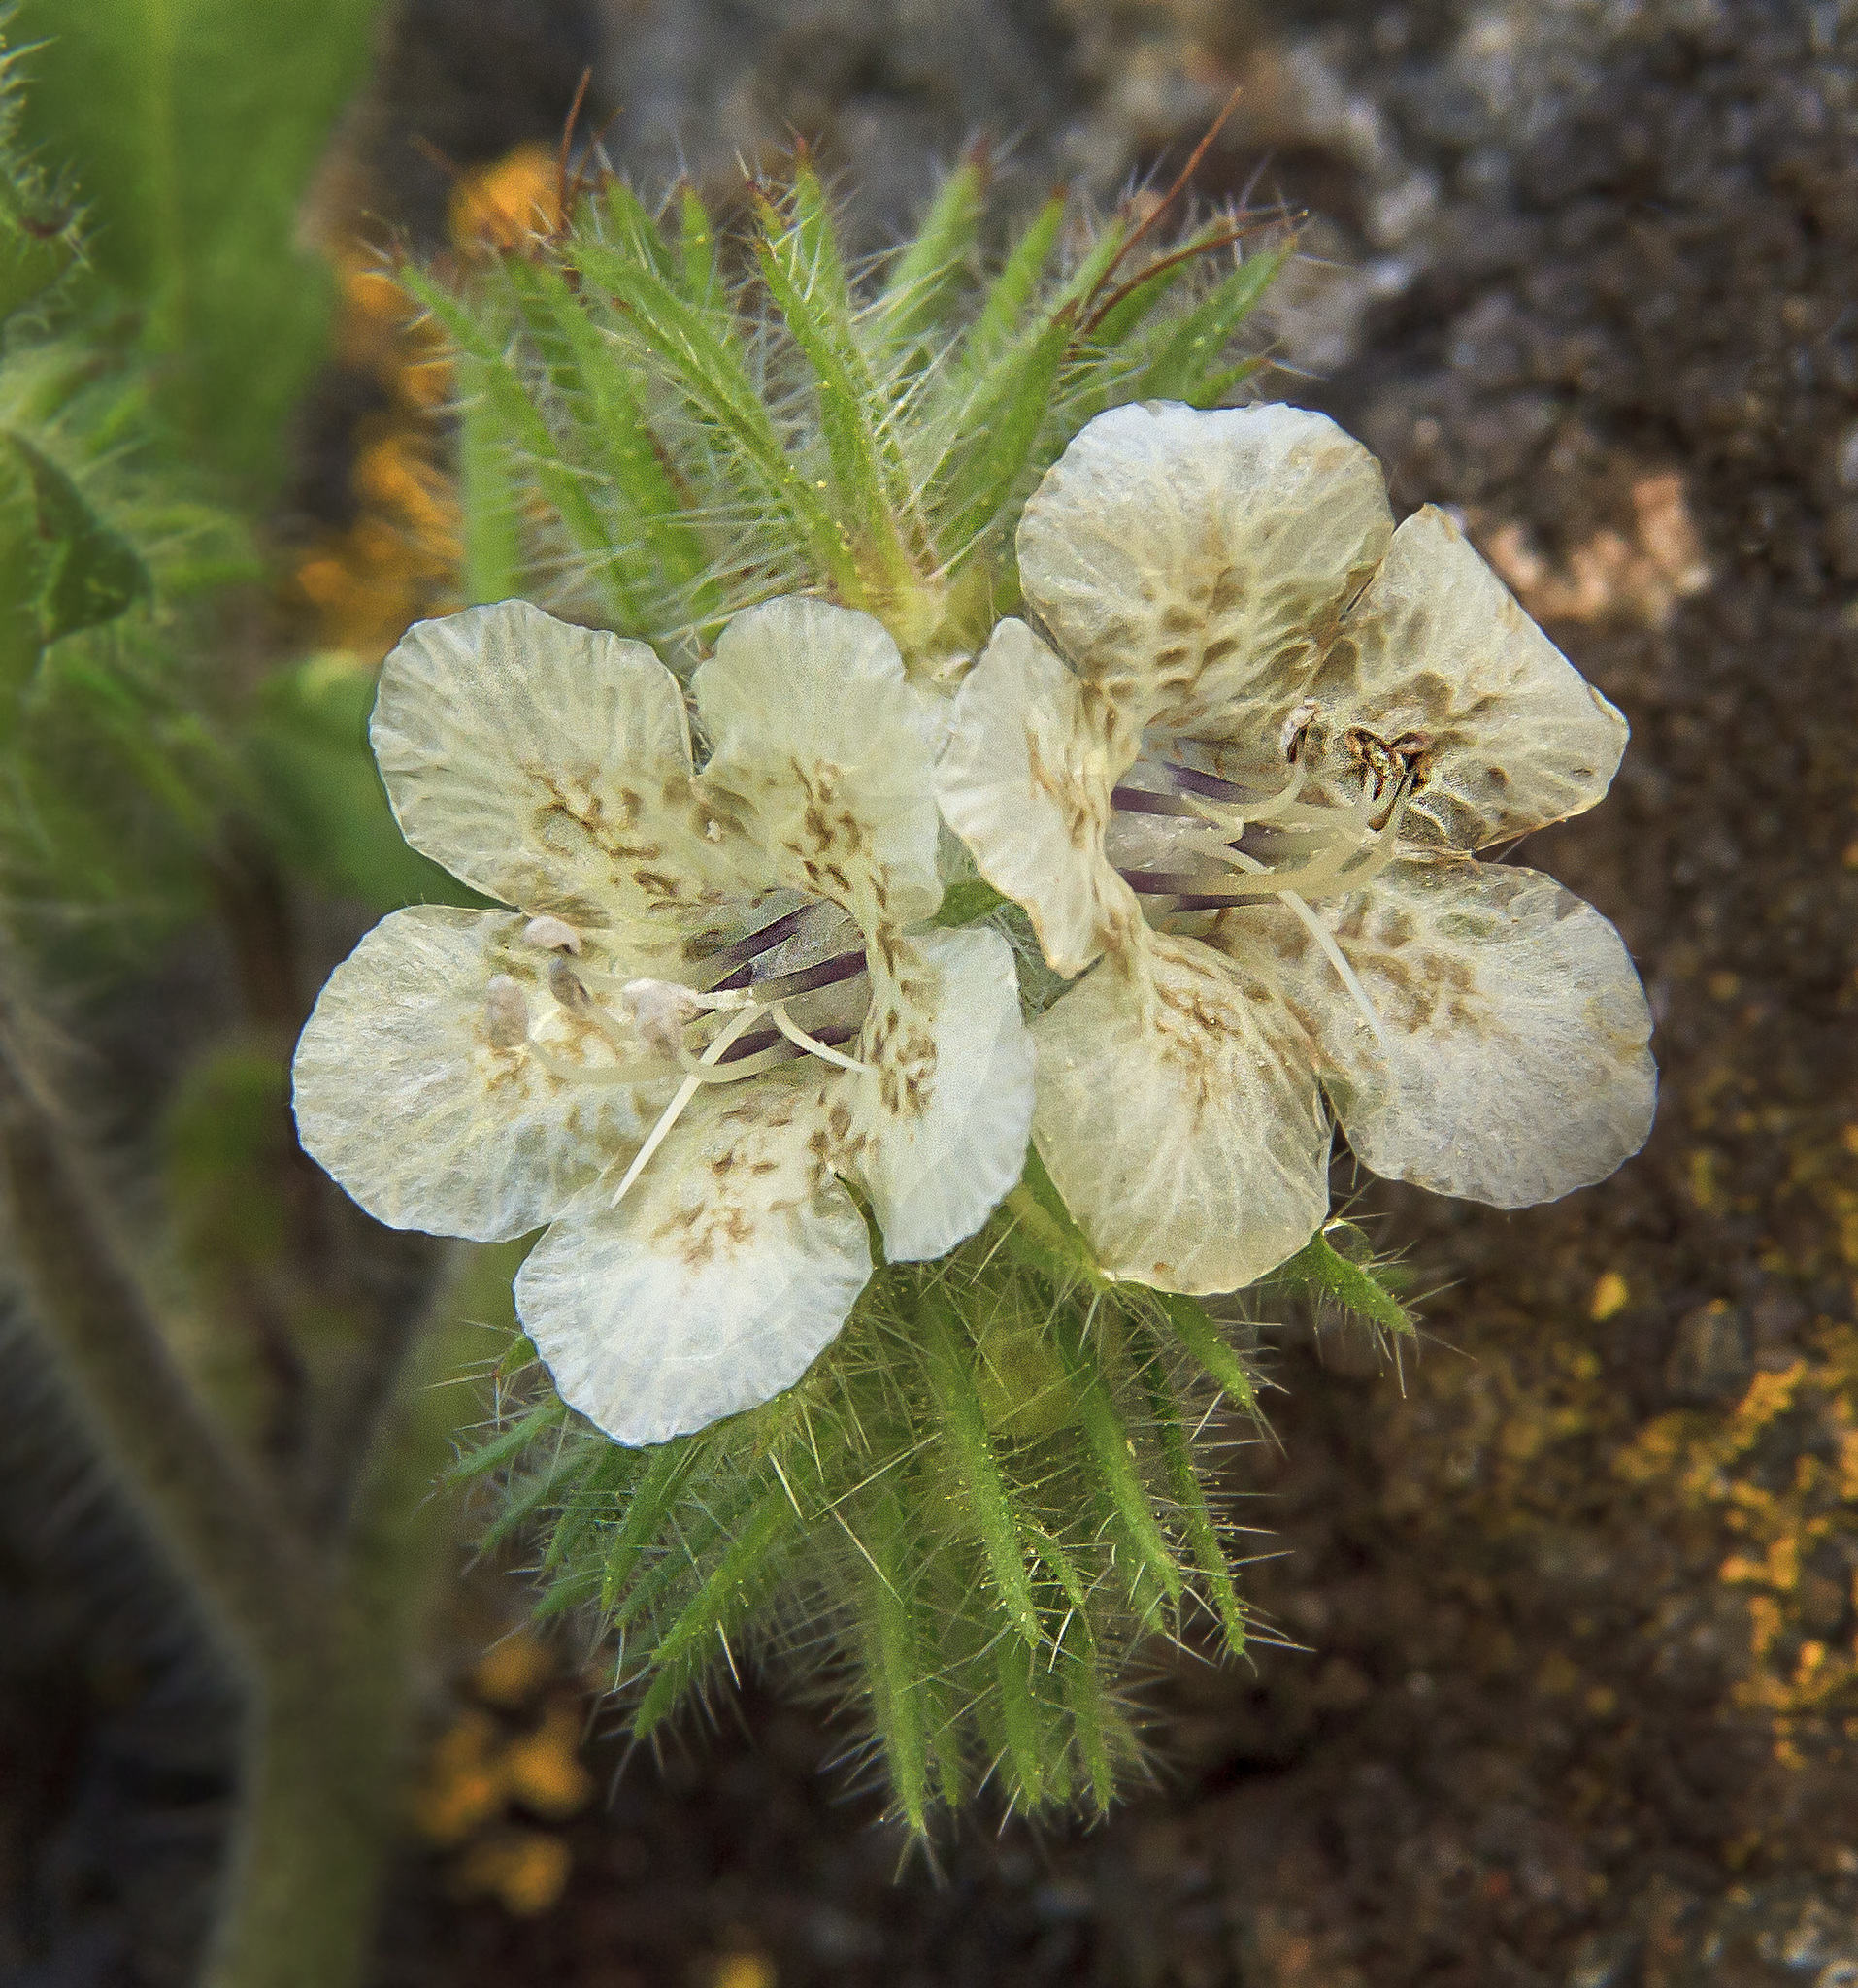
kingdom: Plantae
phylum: Tracheophyta
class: Magnoliopsida
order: Boraginales
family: Hydrophyllaceae
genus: Phacelia
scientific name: Phacelia cicutaria
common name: Caterpillar phacelia
